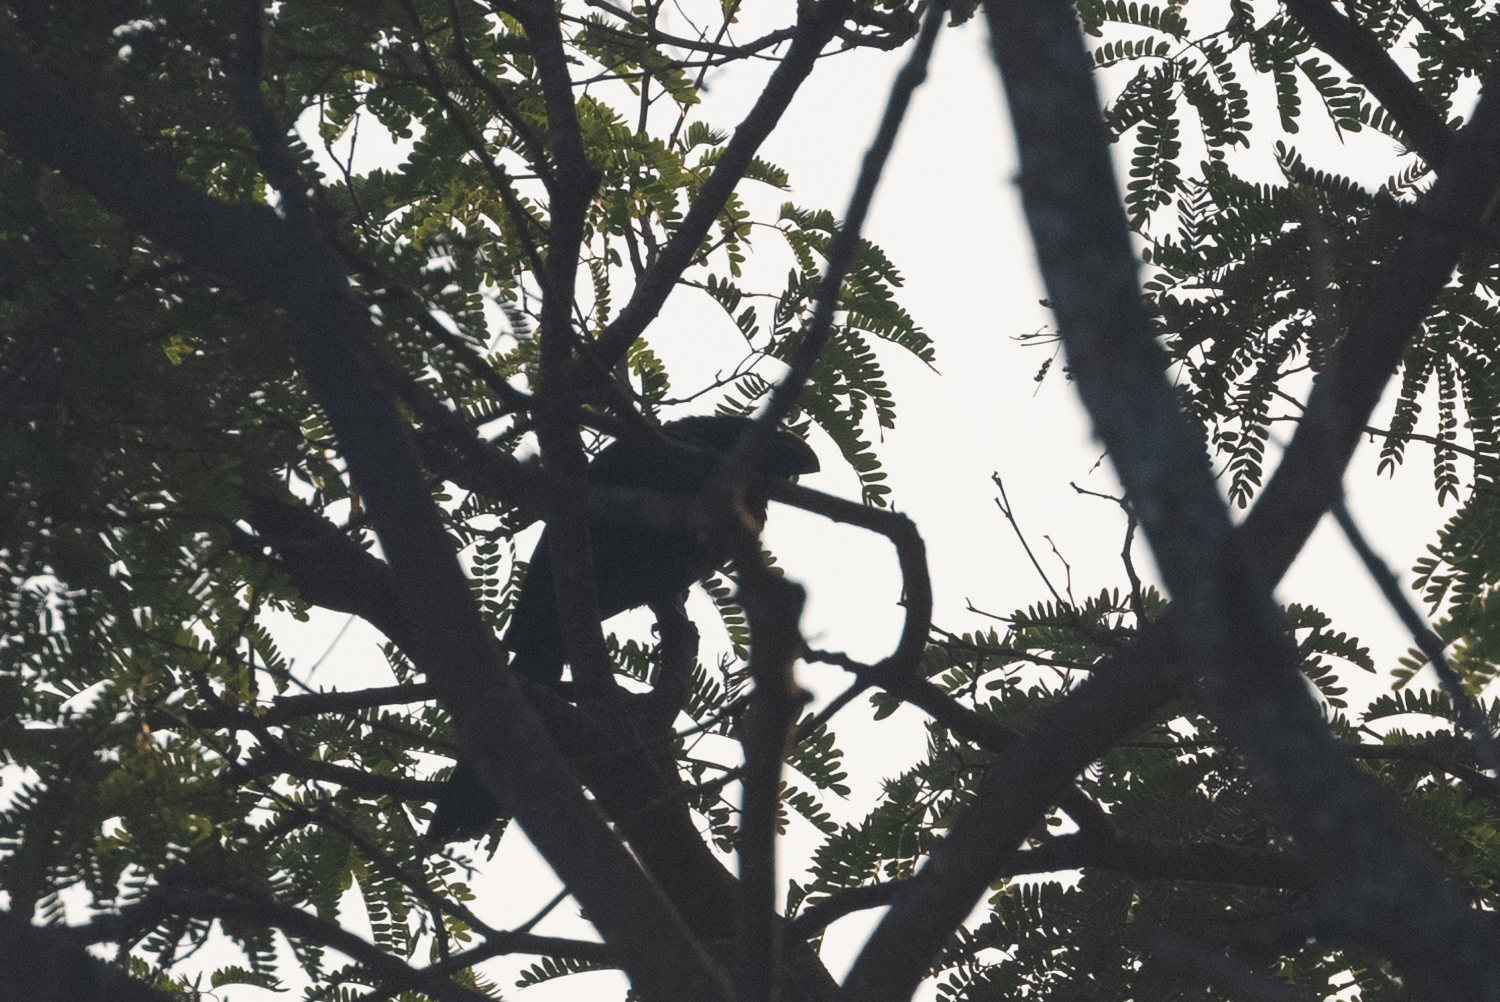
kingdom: Animalia
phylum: Chordata
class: Aves
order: Cuculiformes
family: Cuculidae
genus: Crotophaga
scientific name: Crotophaga ani
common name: Smooth-billed ani
